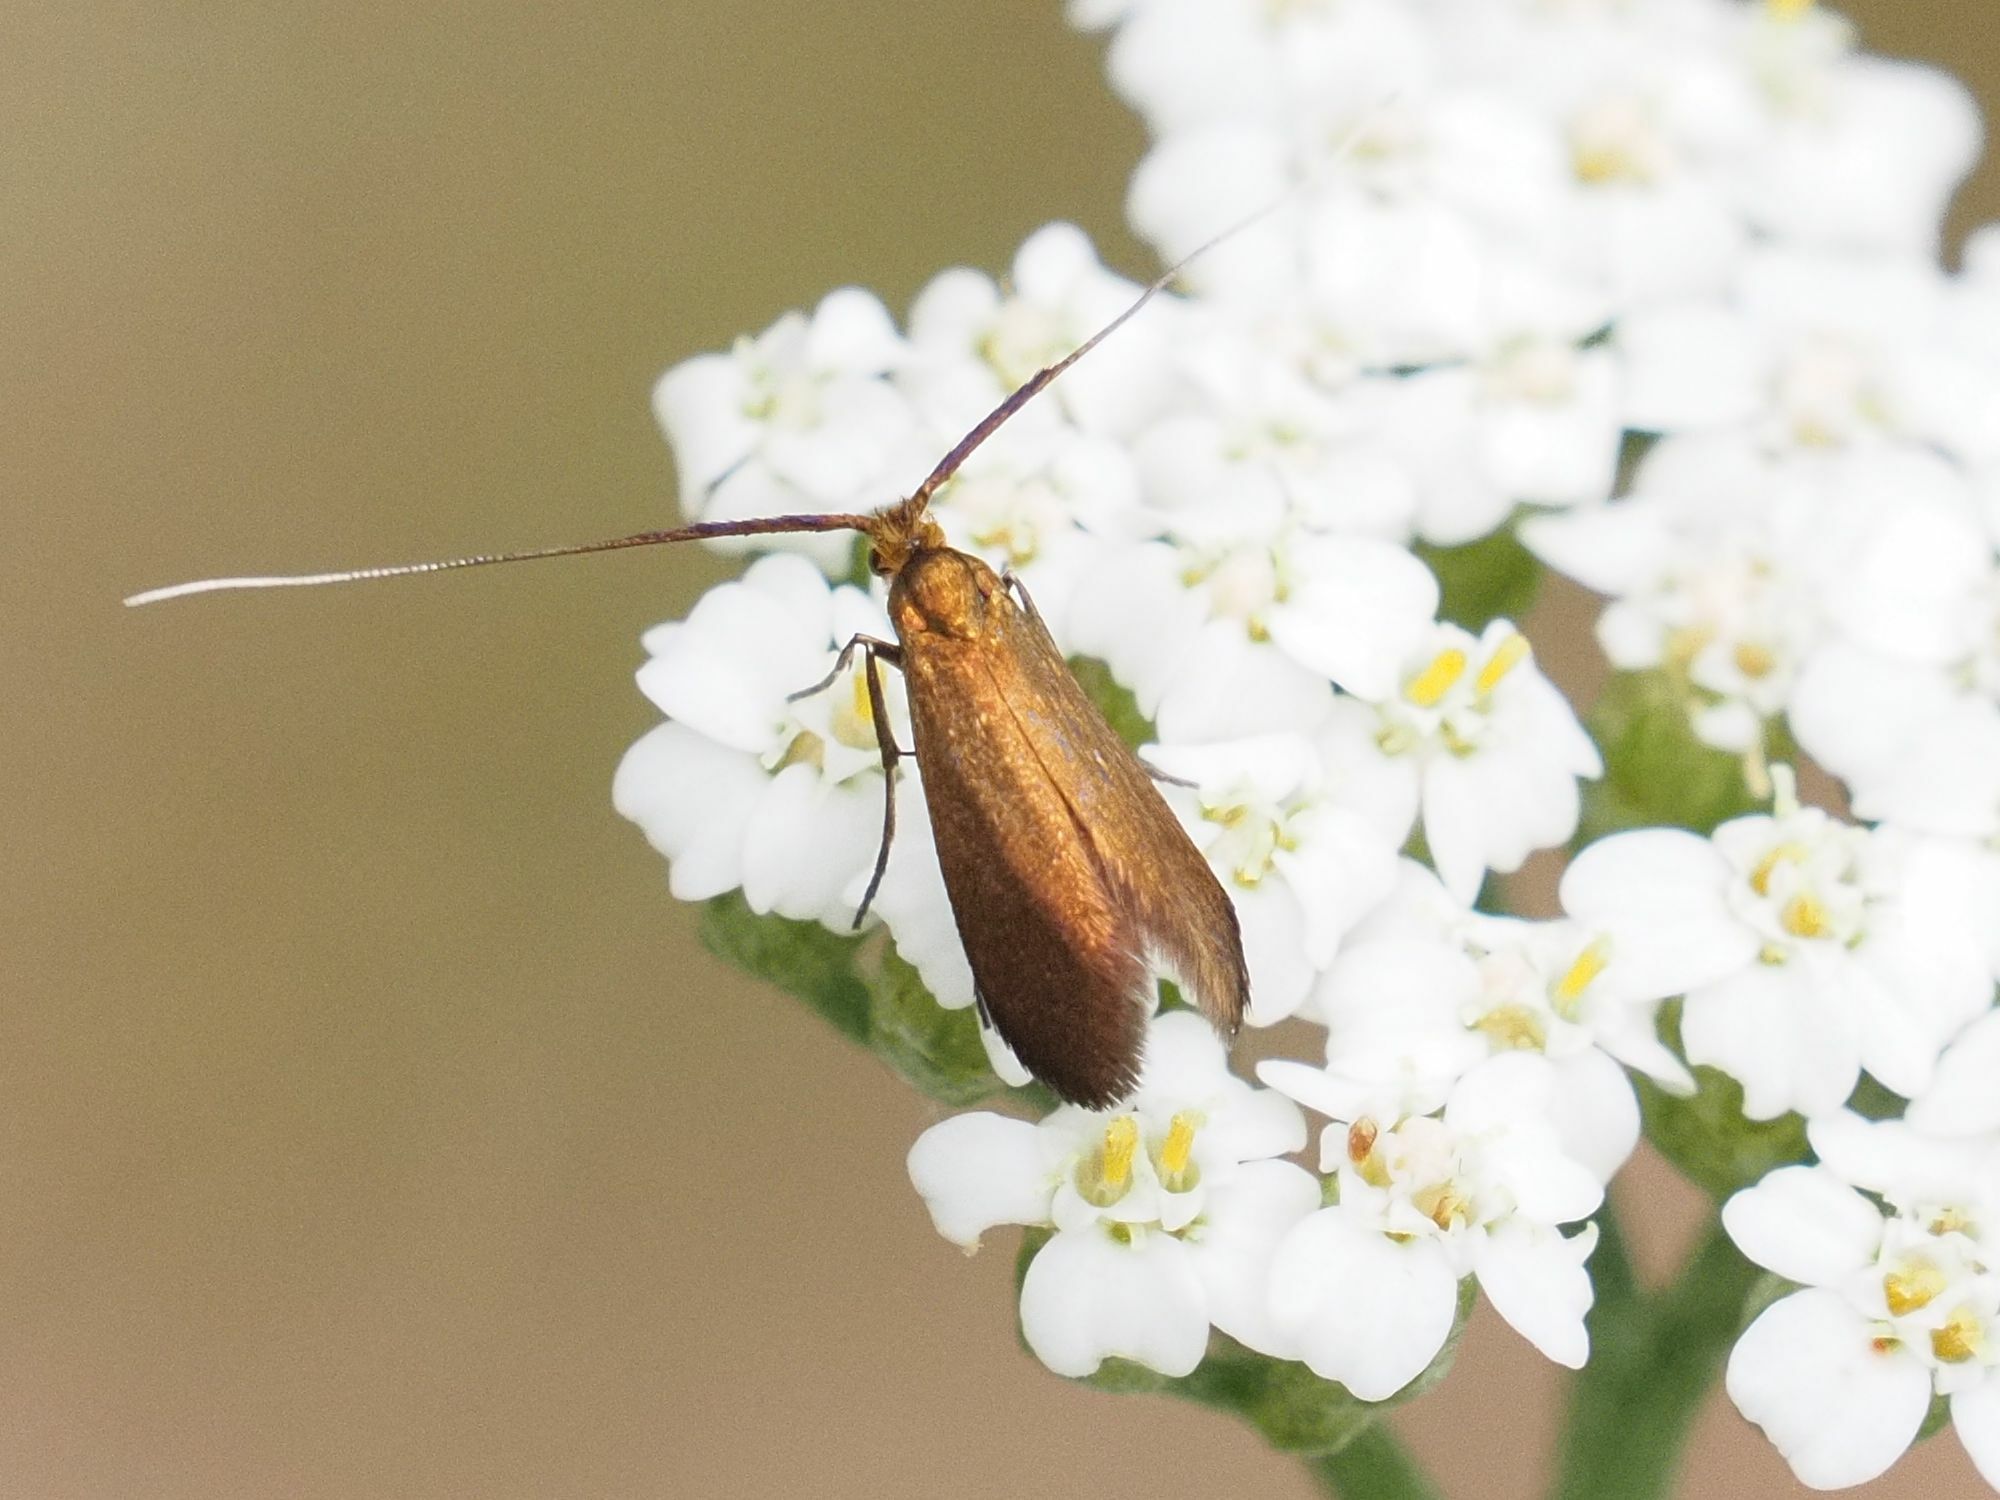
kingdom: Animalia
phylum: Arthropoda
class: Insecta
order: Lepidoptera
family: Adelidae
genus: Adela
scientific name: Adela violella
